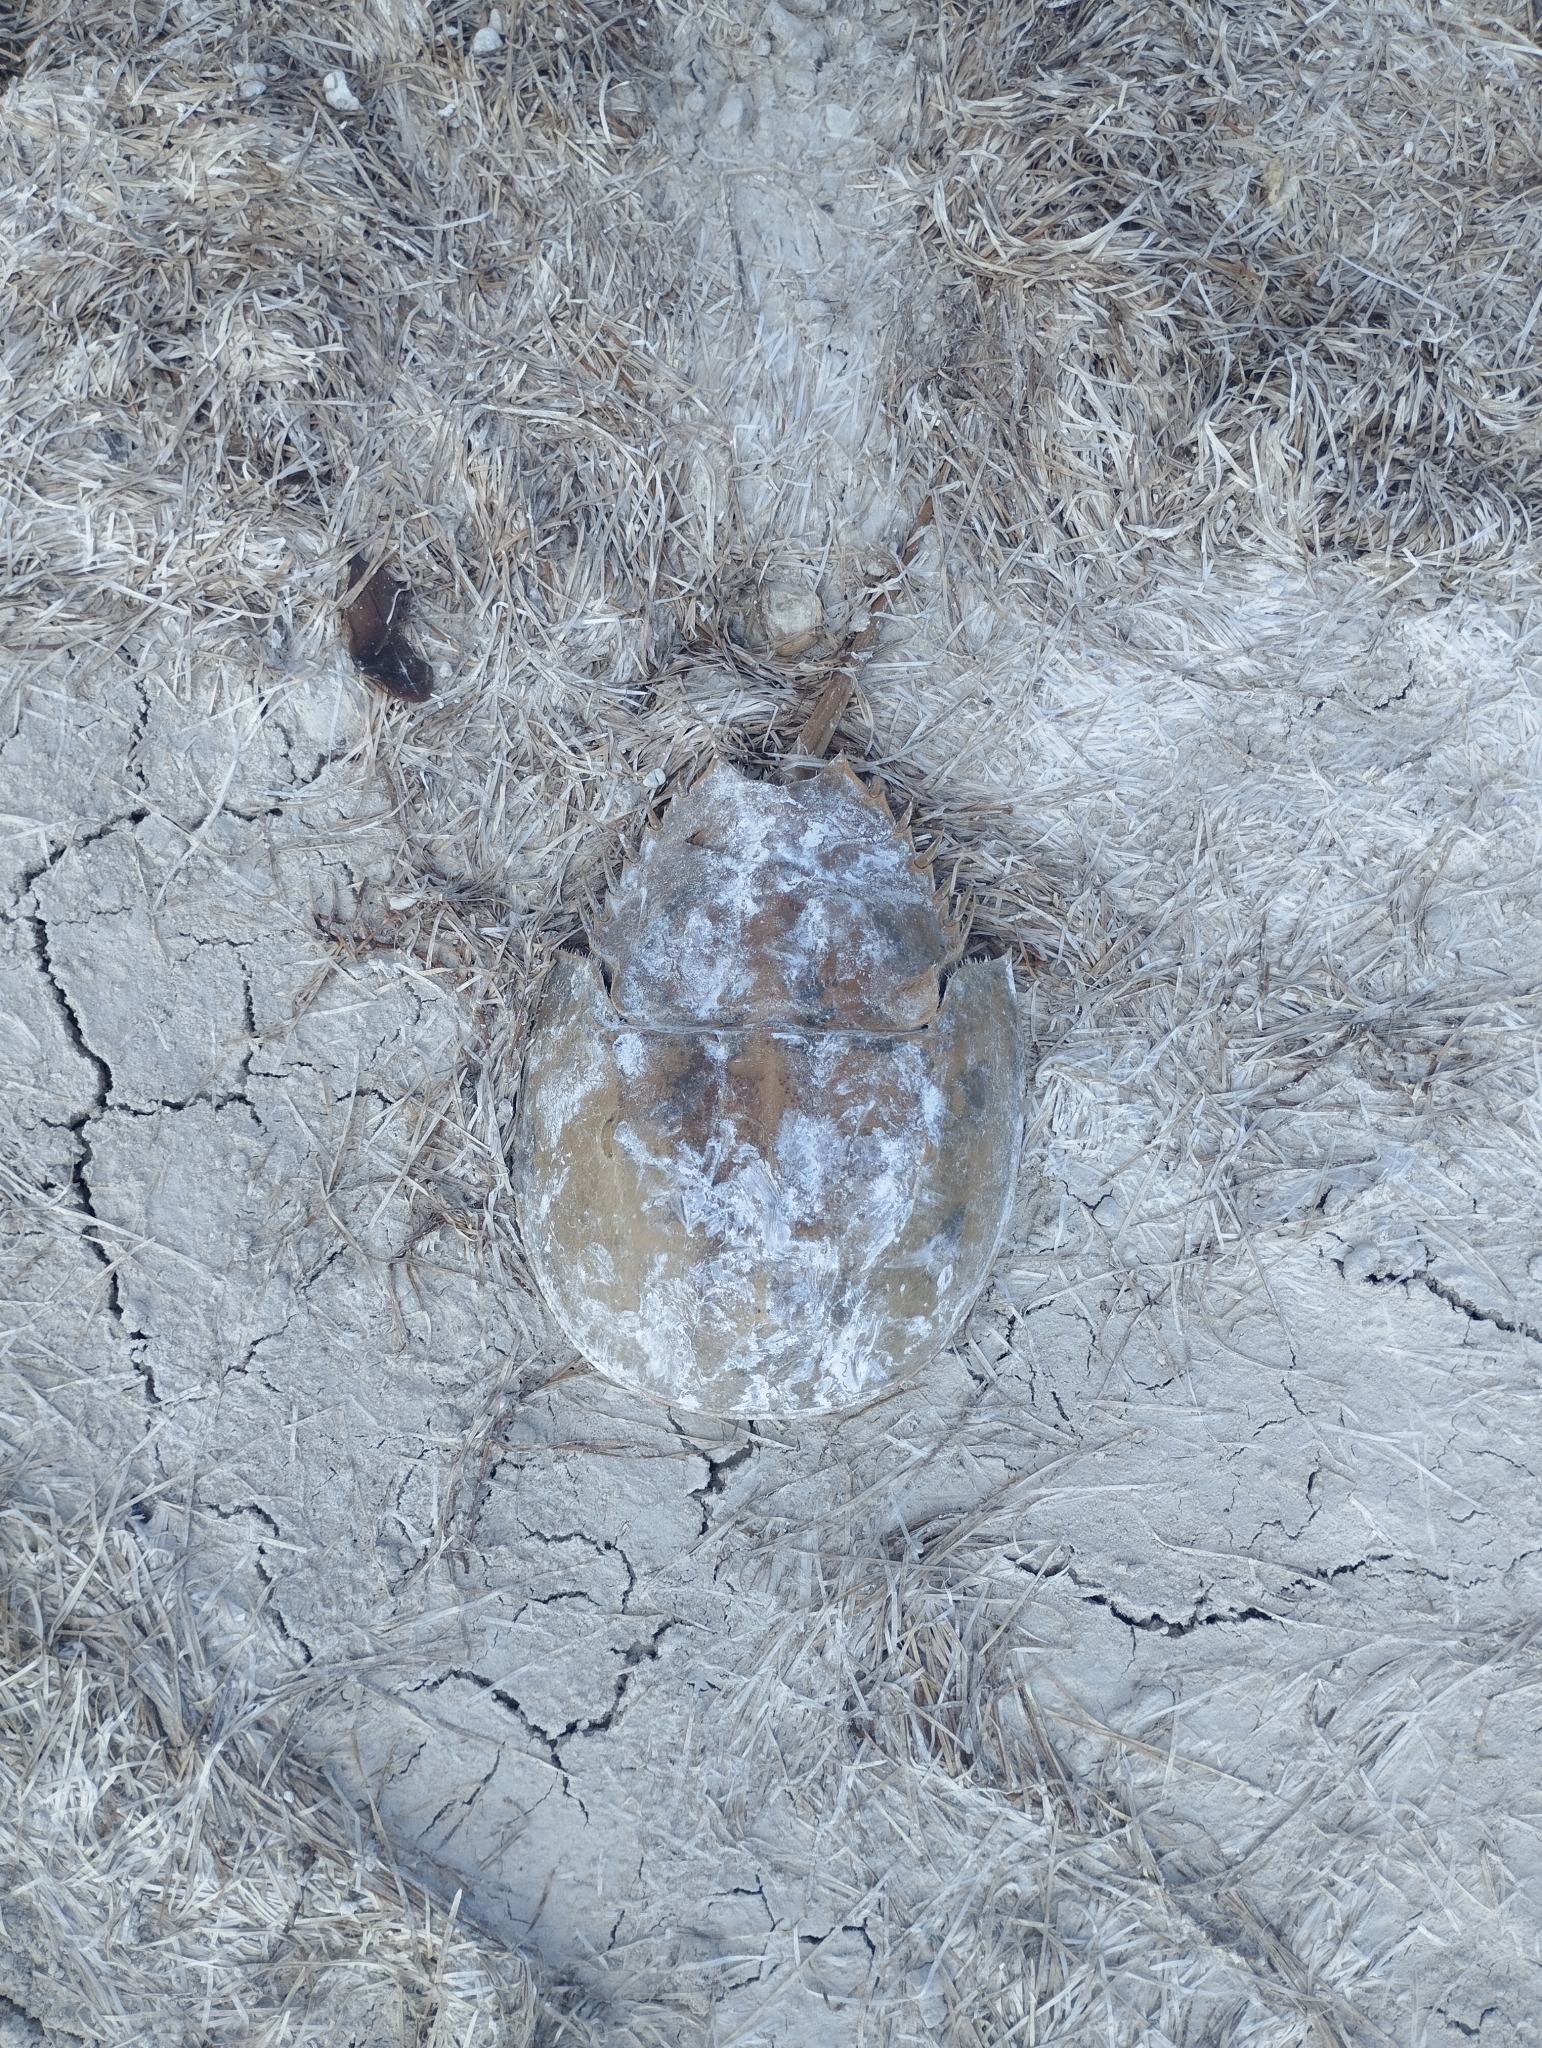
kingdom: Animalia
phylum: Arthropoda
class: Merostomata
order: Xiphosurida
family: Limulidae
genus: Limulus
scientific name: Limulus polyphemus
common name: Horseshoe crab
